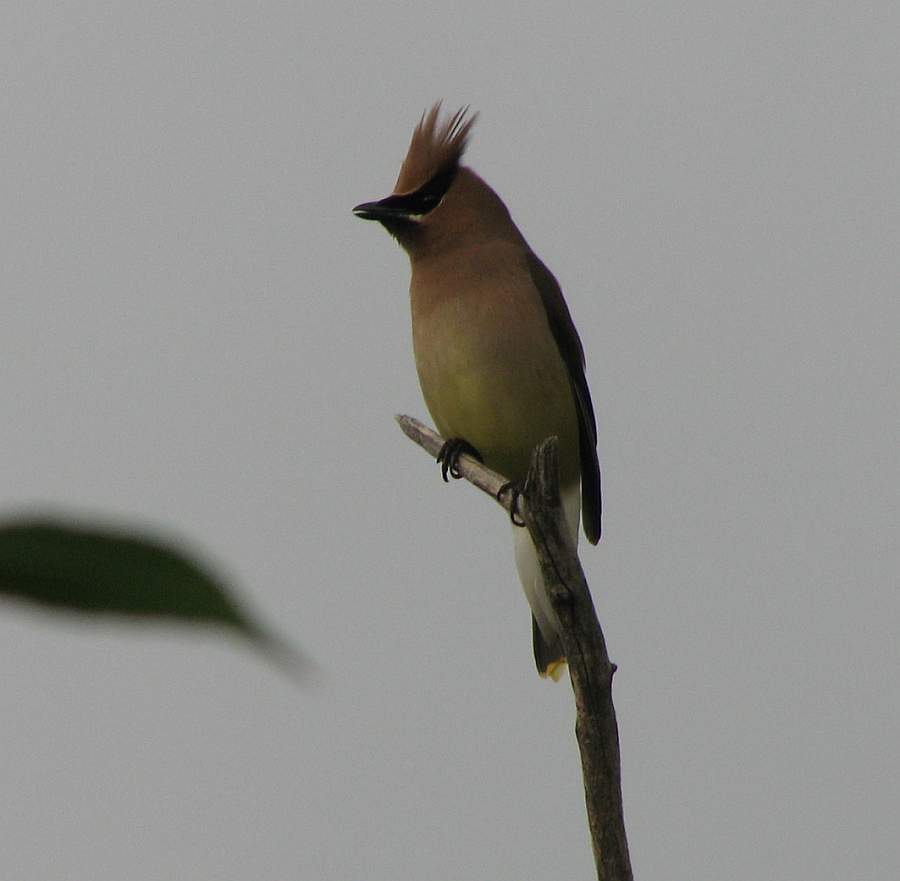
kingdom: Animalia
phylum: Chordata
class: Aves
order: Passeriformes
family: Bombycillidae
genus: Bombycilla
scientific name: Bombycilla cedrorum
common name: Cedar waxwing
